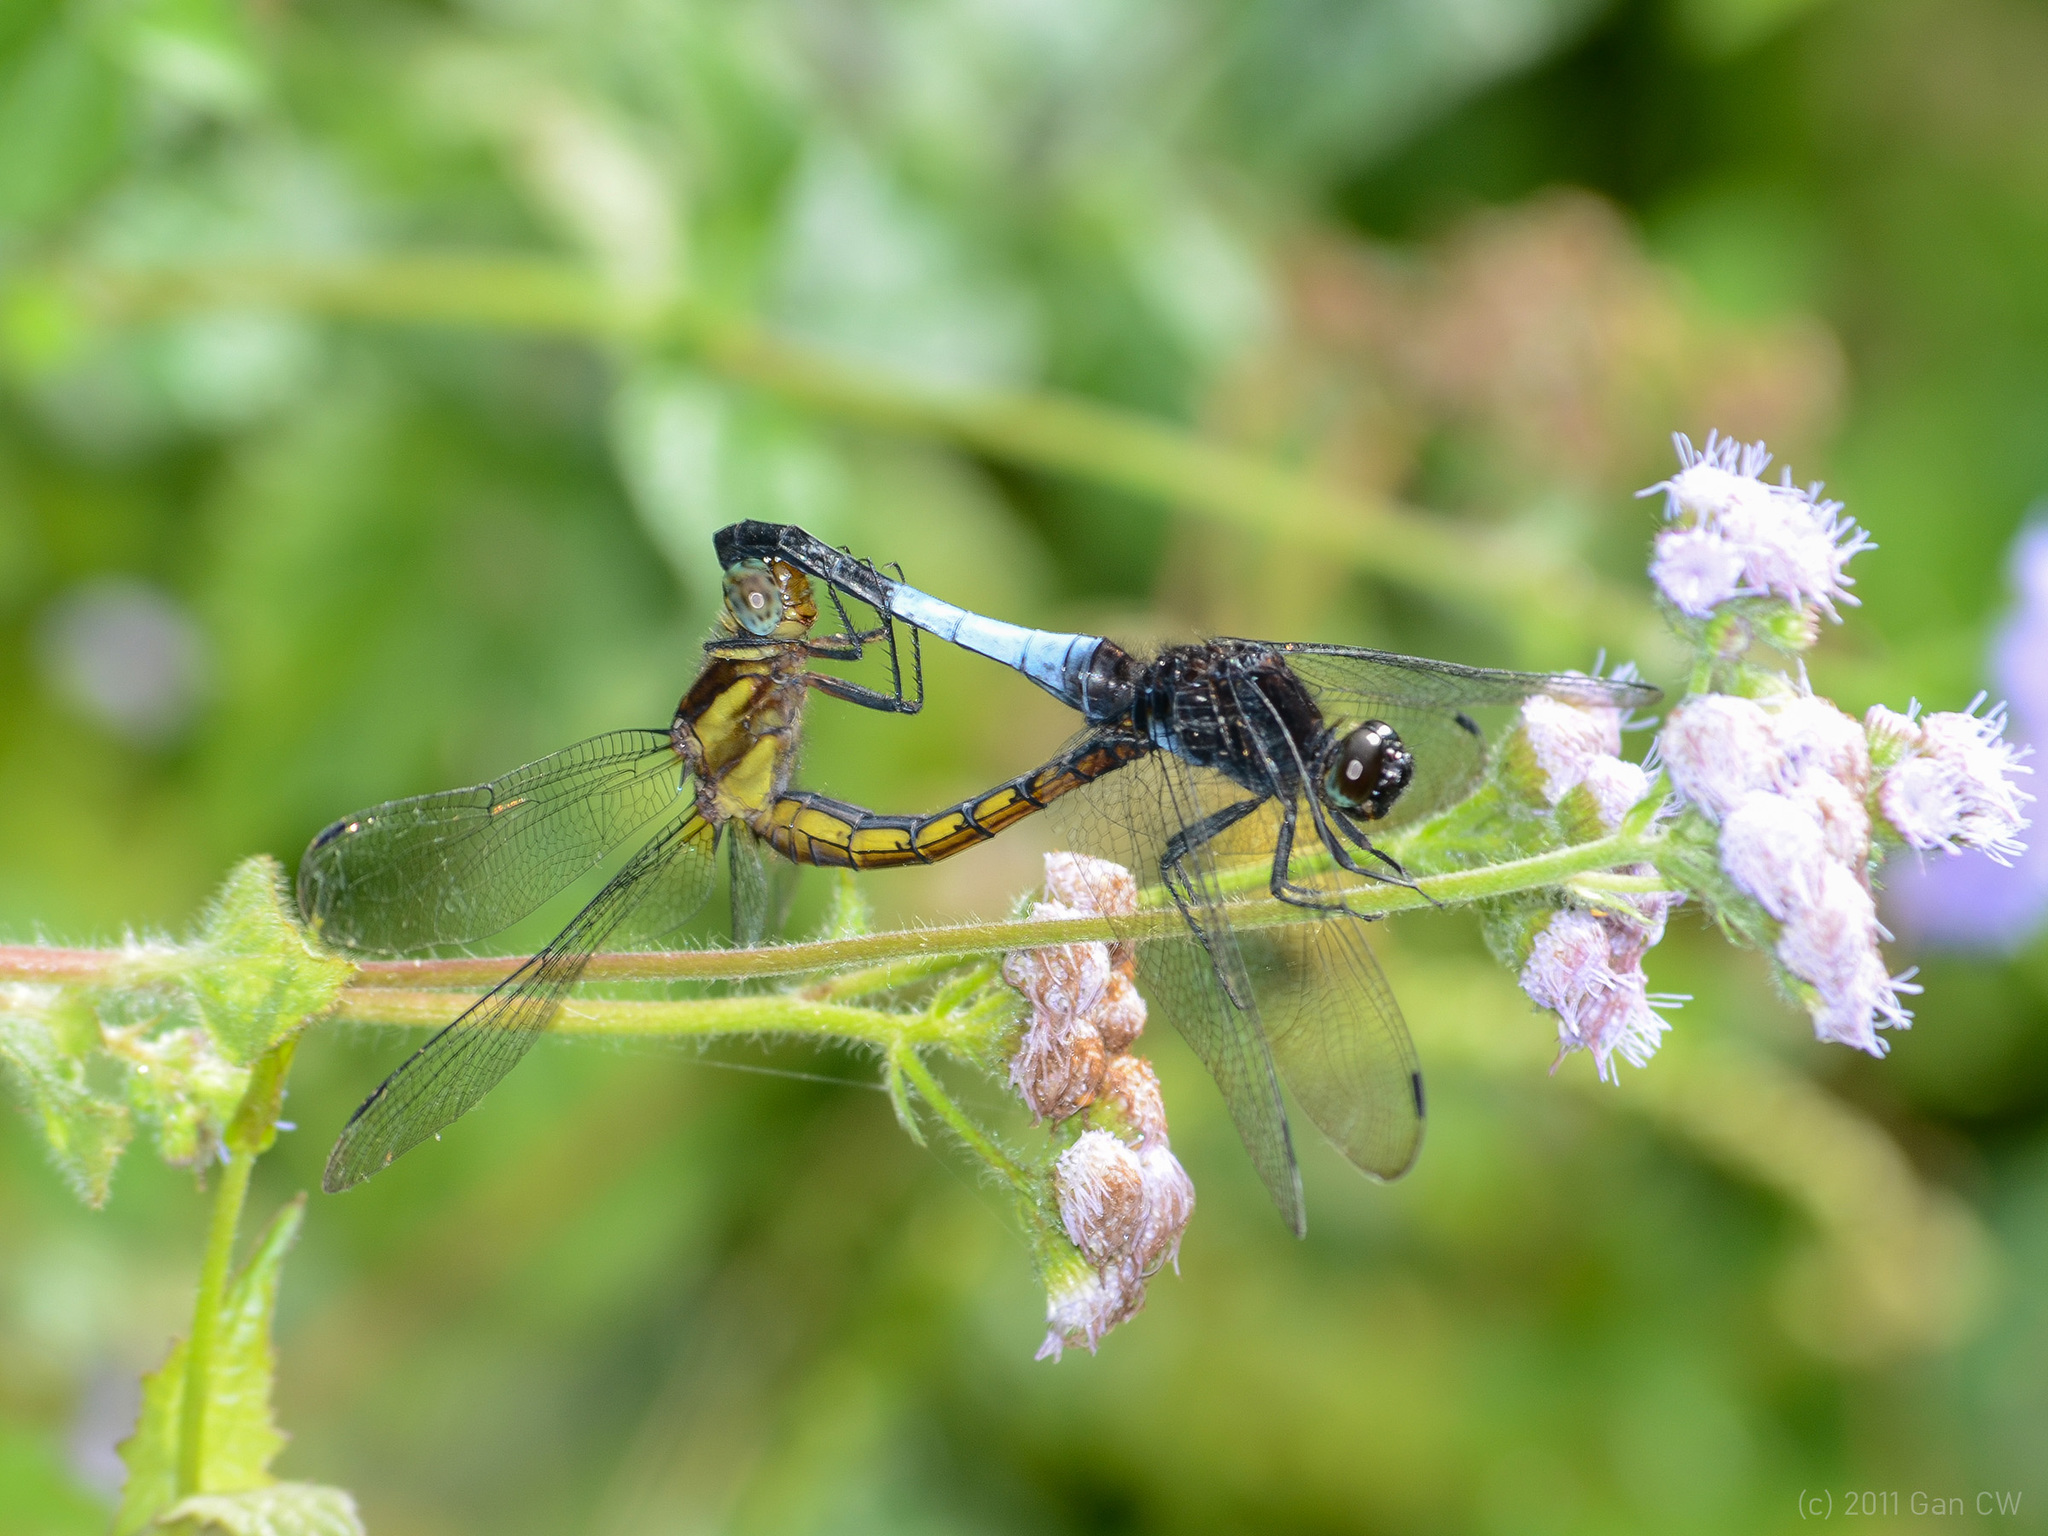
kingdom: Animalia
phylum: Arthropoda
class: Insecta
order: Odonata
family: Libellulidae
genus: Orthetrum
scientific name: Orthetrum triangulare
